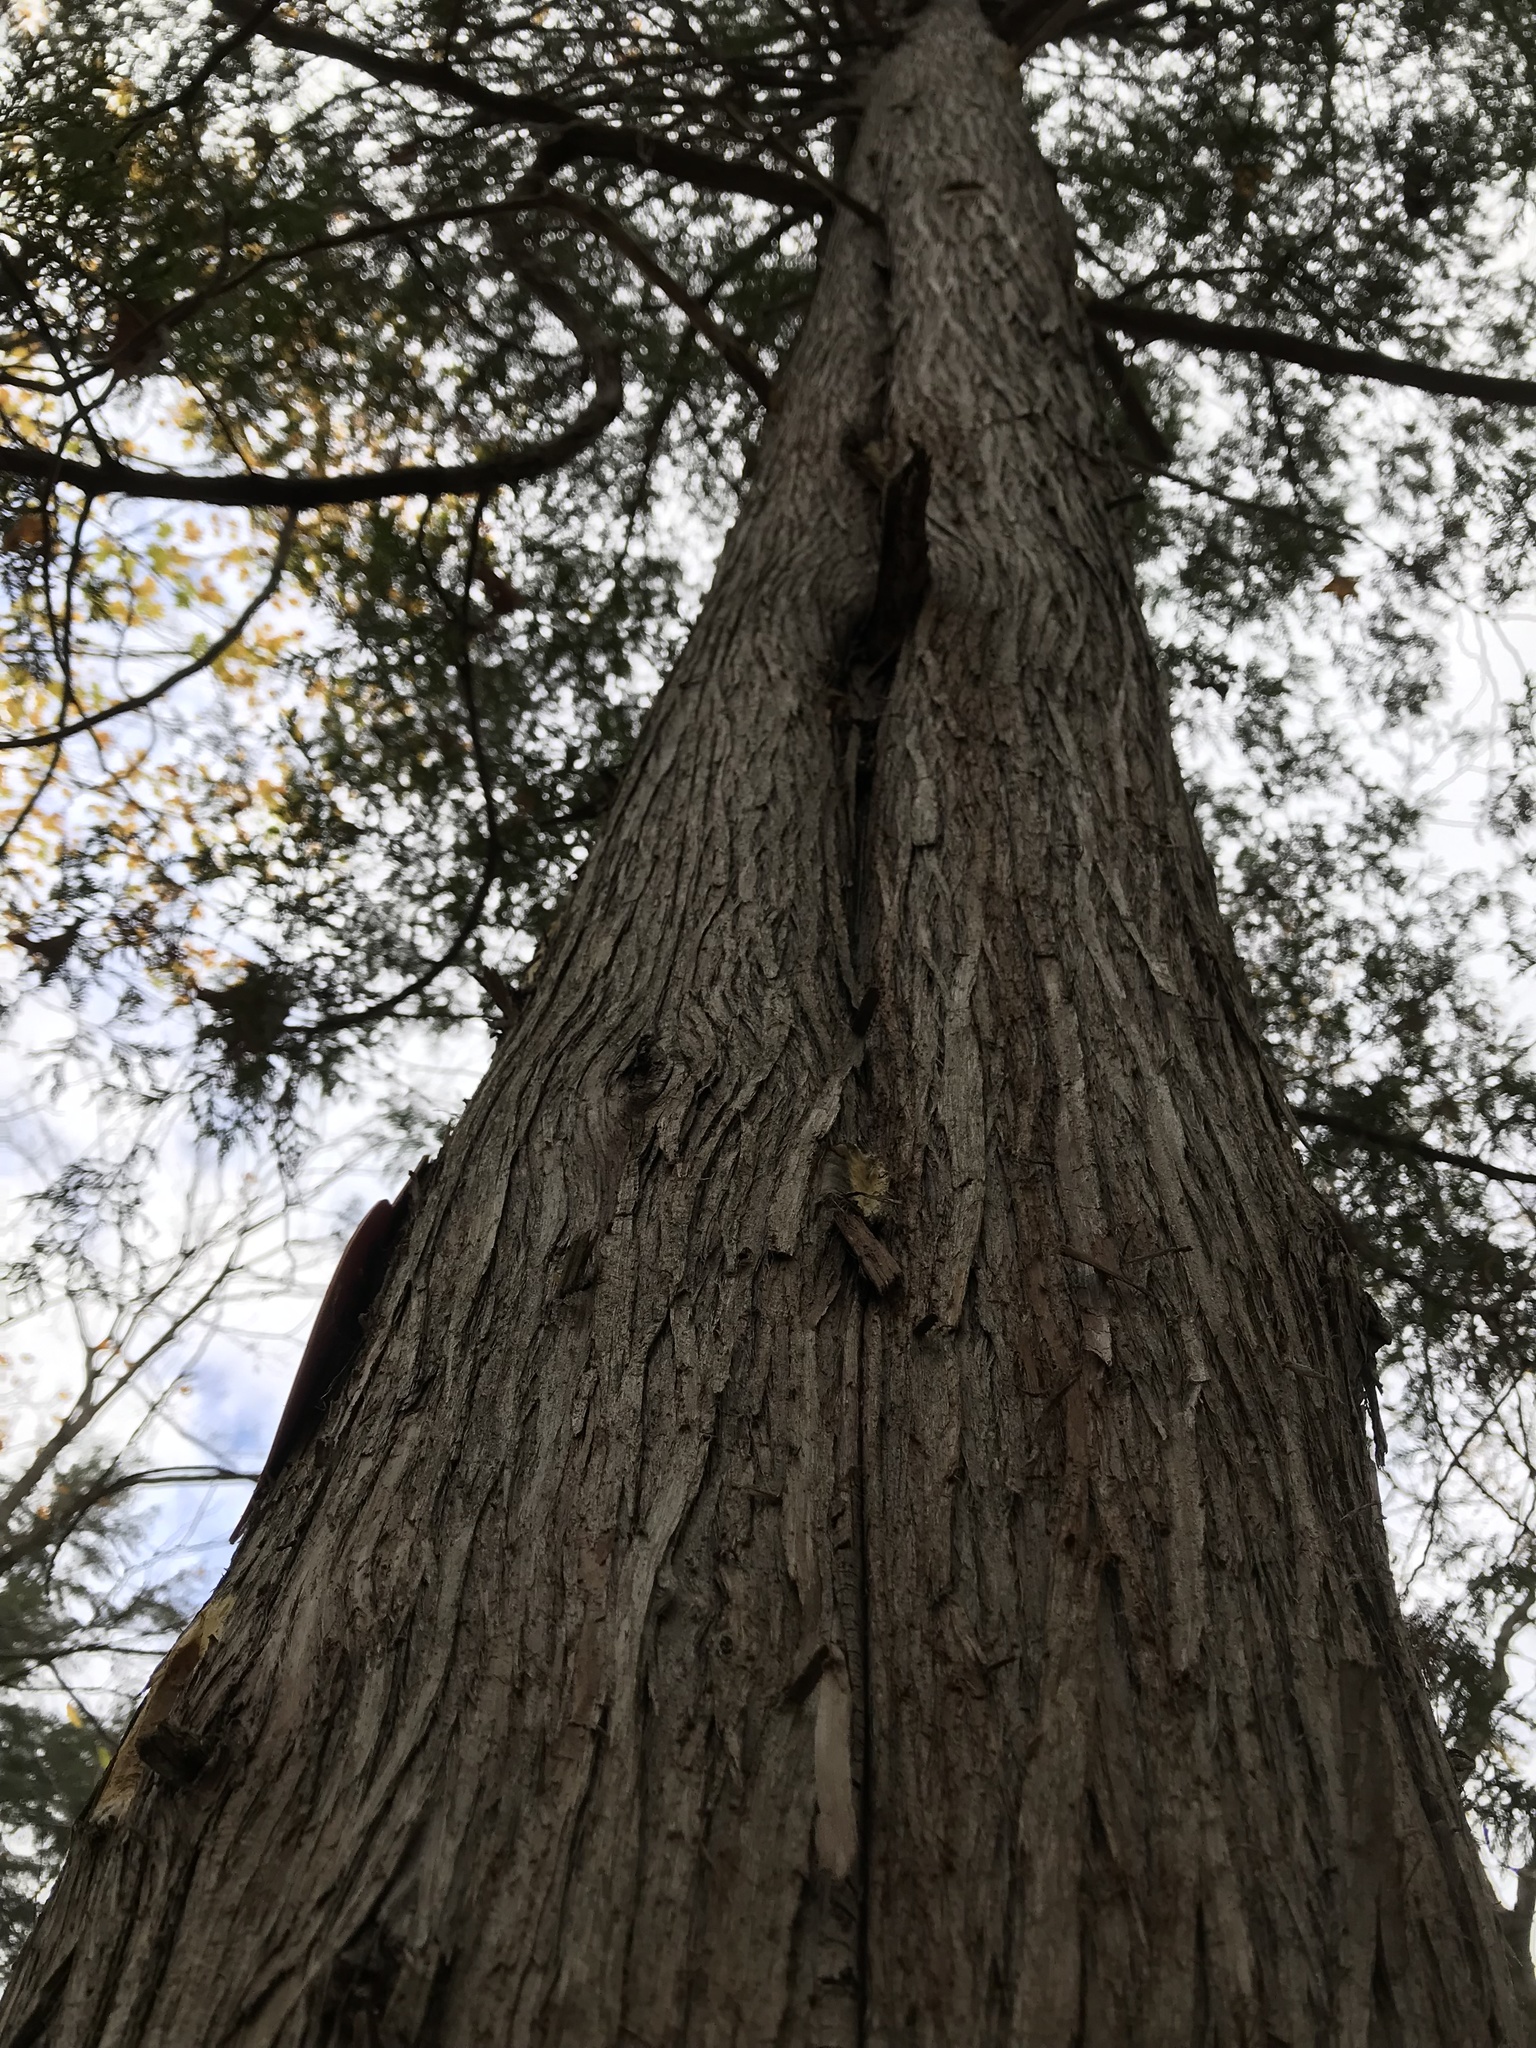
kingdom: Plantae
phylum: Tracheophyta
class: Pinopsida
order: Pinales
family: Cupressaceae
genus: Thuja
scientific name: Thuja occidentalis
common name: Northern white-cedar
